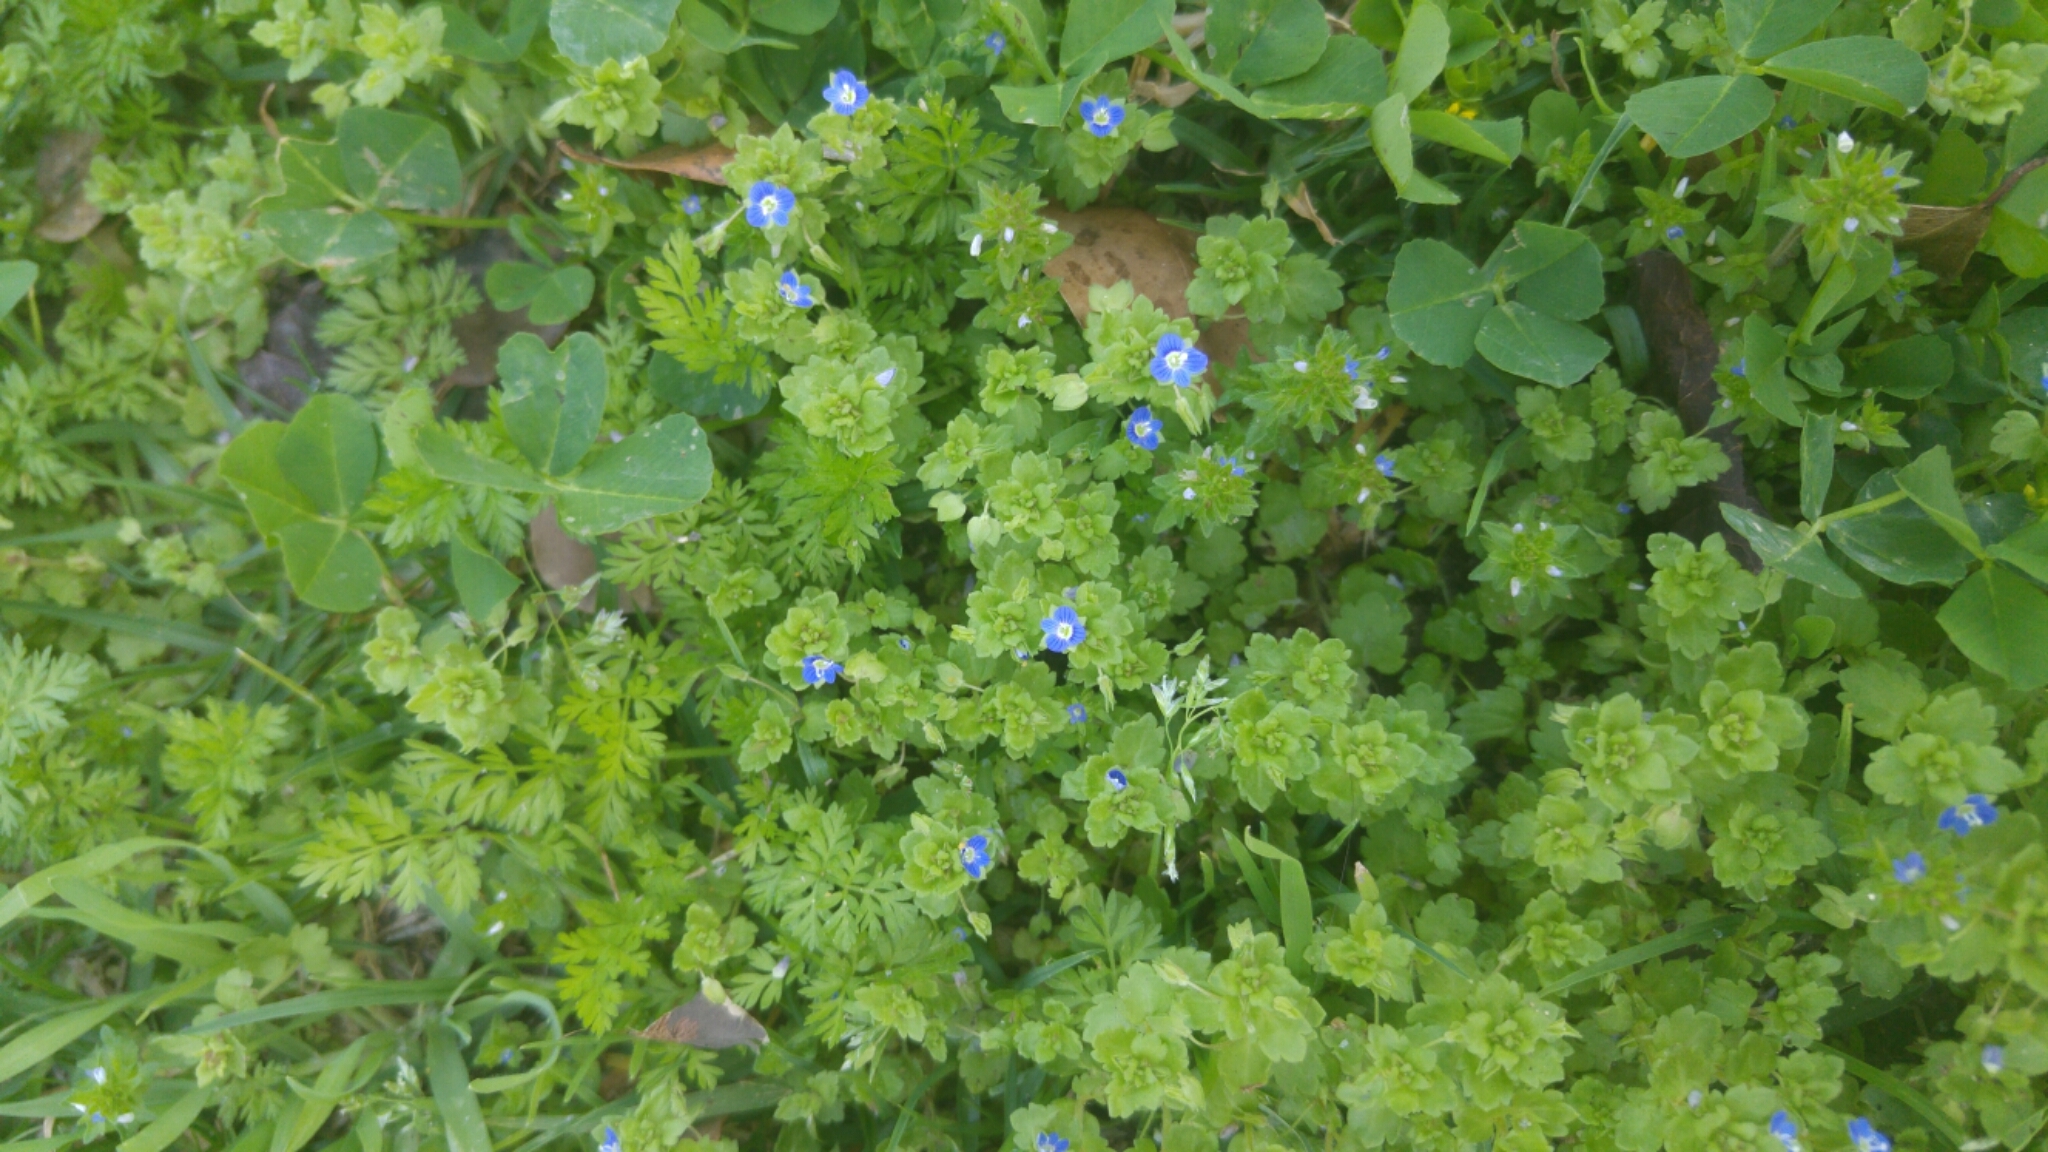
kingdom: Plantae
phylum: Tracheophyta
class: Magnoliopsida
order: Lamiales
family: Plantaginaceae
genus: Veronica
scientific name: Veronica polita
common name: Grey field-speedwell
